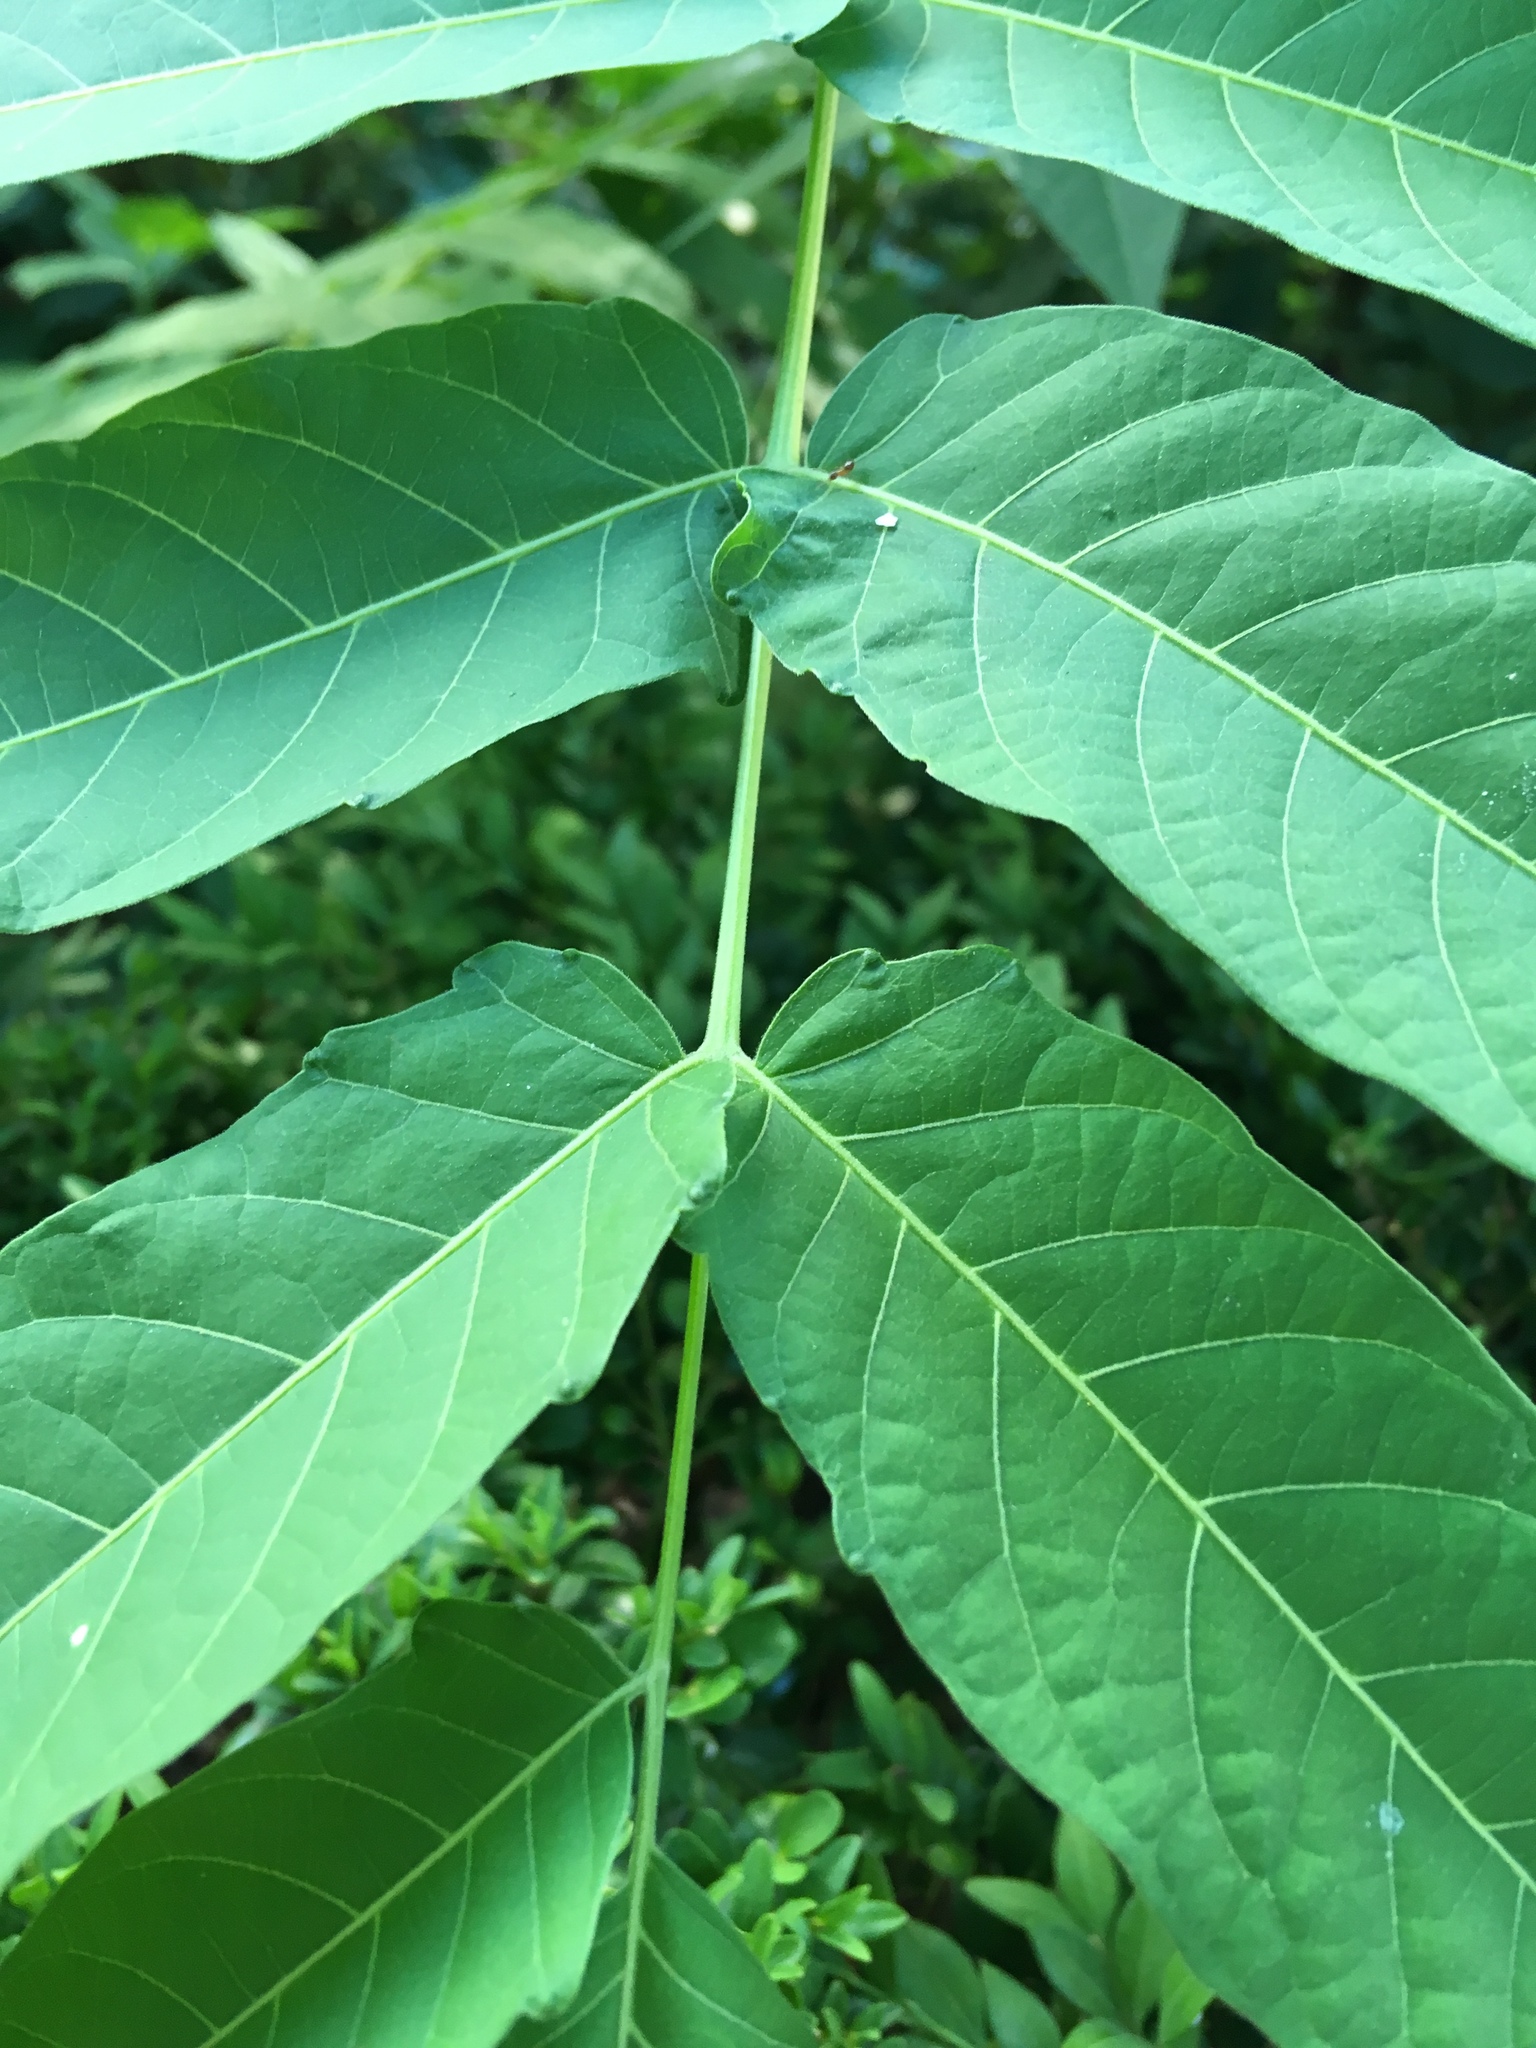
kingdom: Plantae
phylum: Tracheophyta
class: Magnoliopsida
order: Sapindales
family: Simaroubaceae
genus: Ailanthus
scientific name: Ailanthus altissima
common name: Tree-of-heaven
